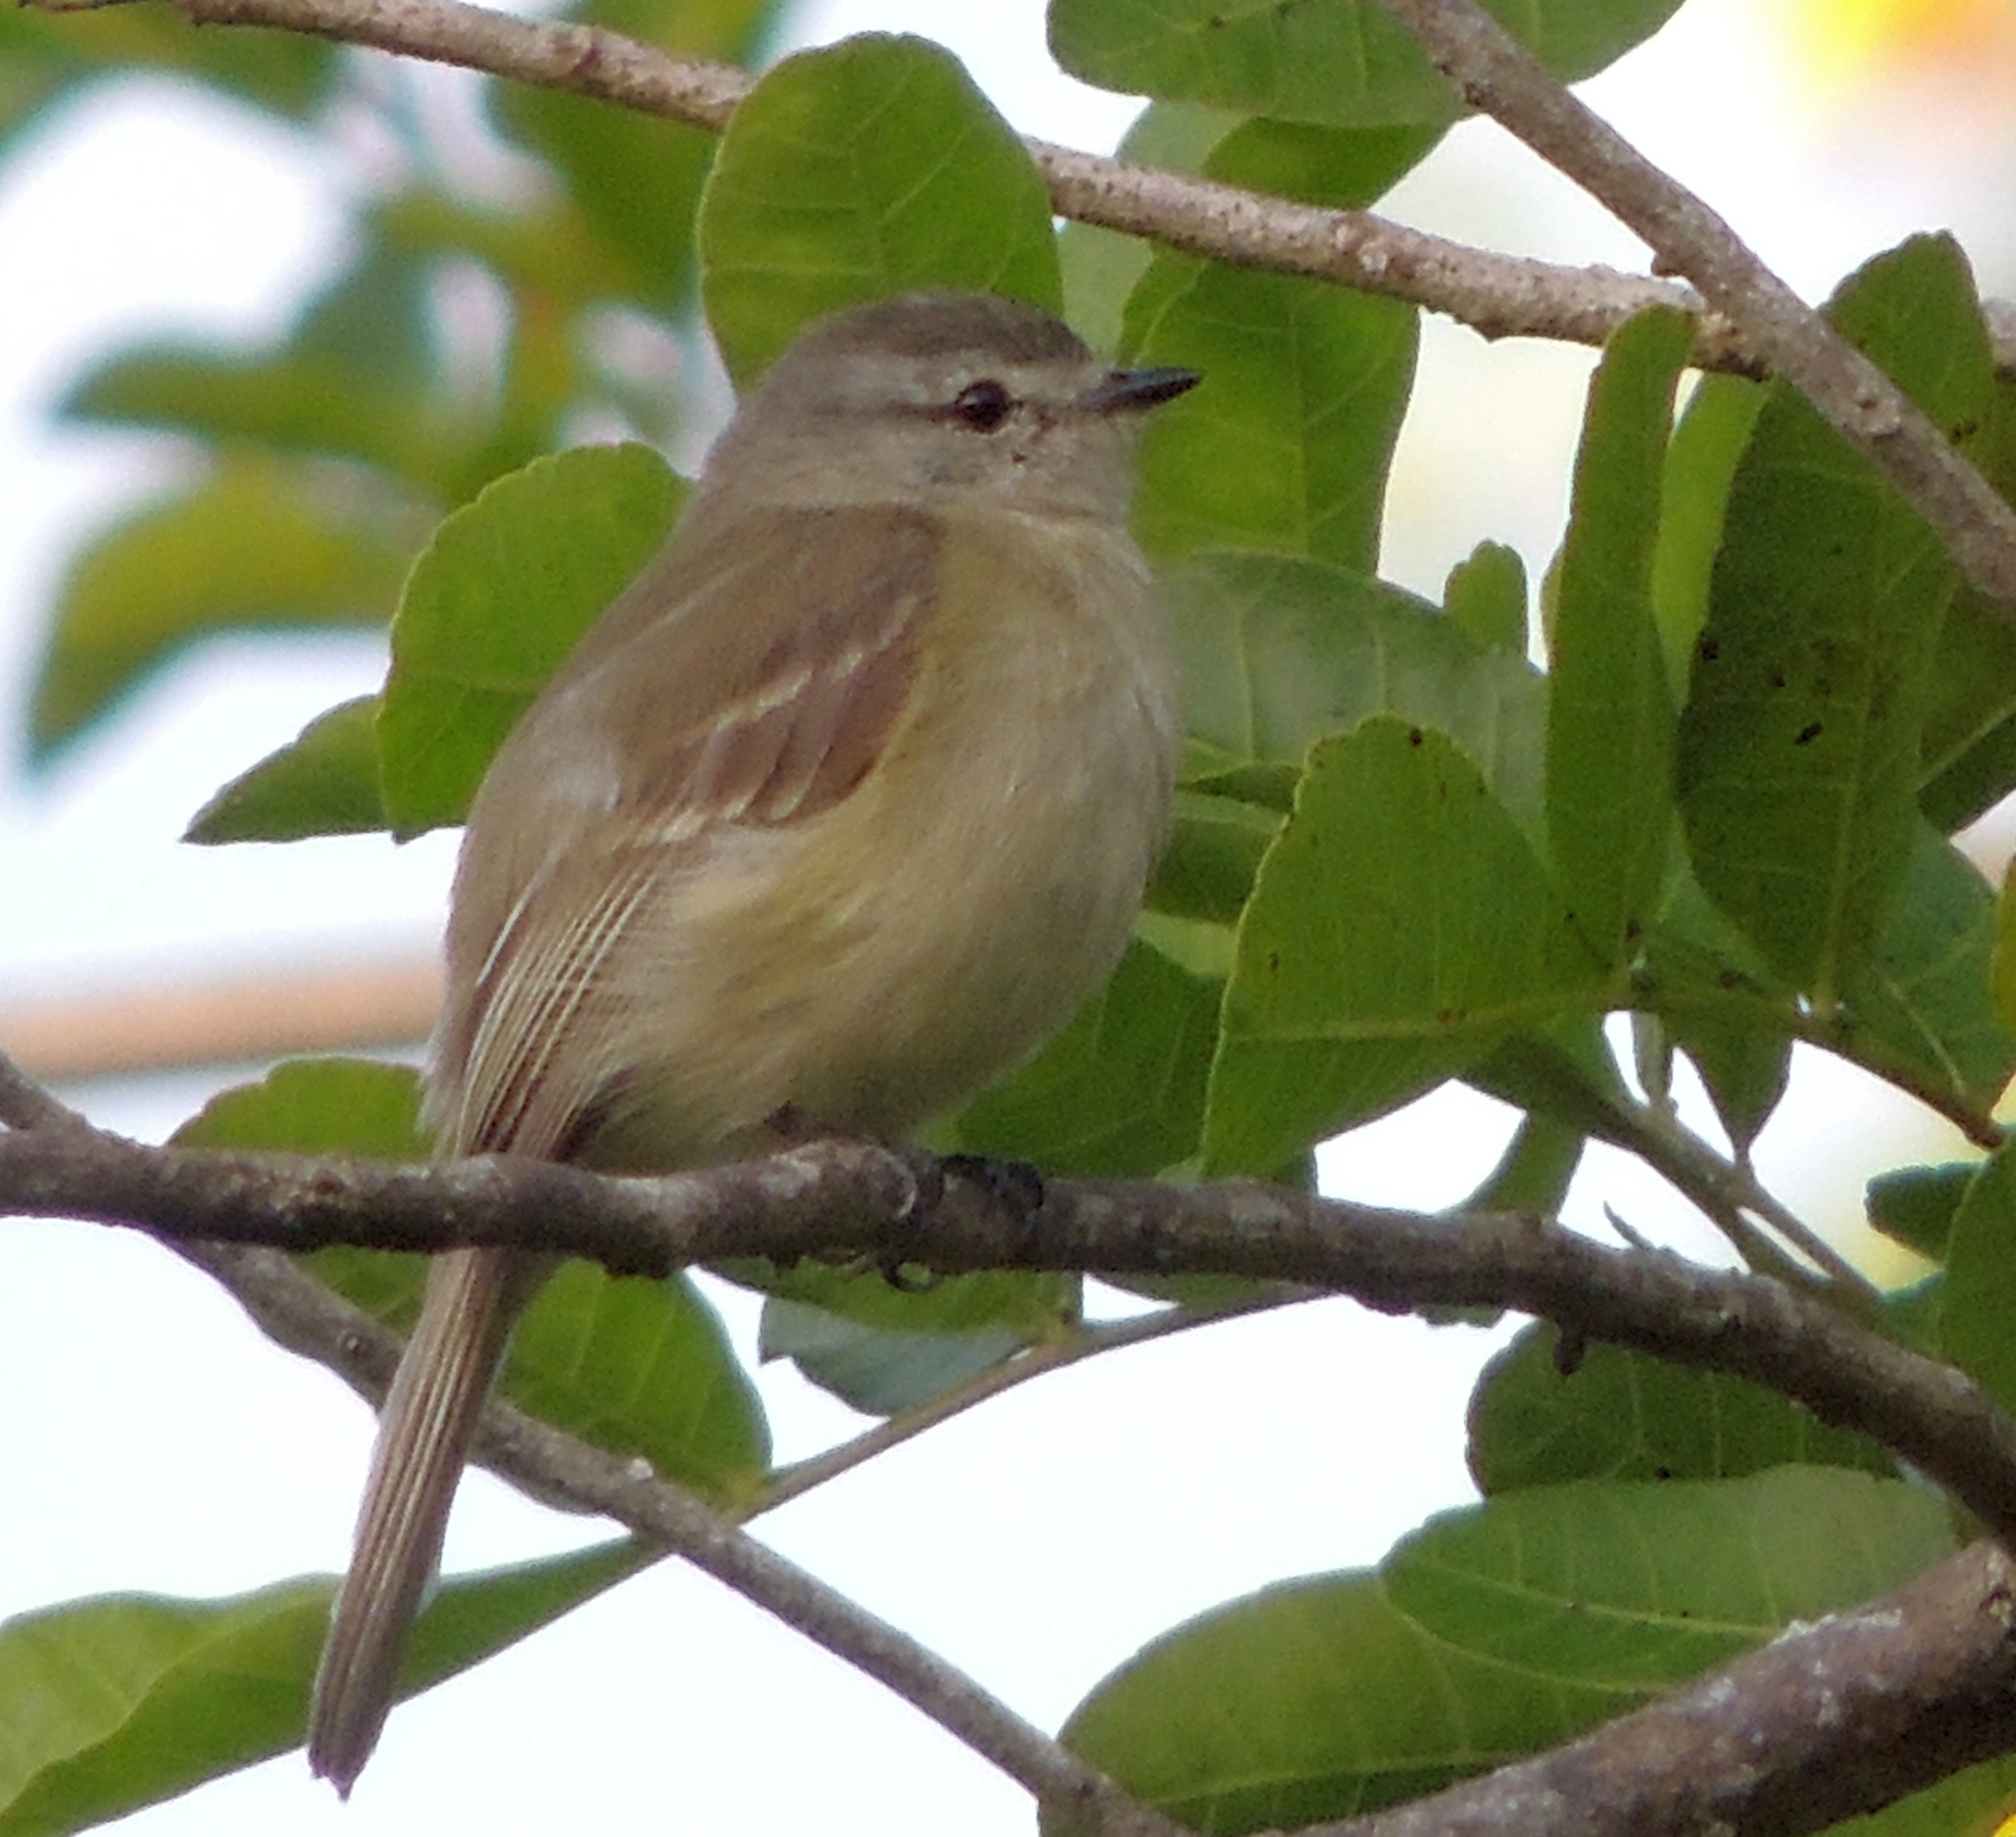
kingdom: Animalia
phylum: Chordata
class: Aves
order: Passeriformes
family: Tyrannidae
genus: Phyllomyias
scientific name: Phyllomyias fasciatus
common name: Planalto tyrannulet
